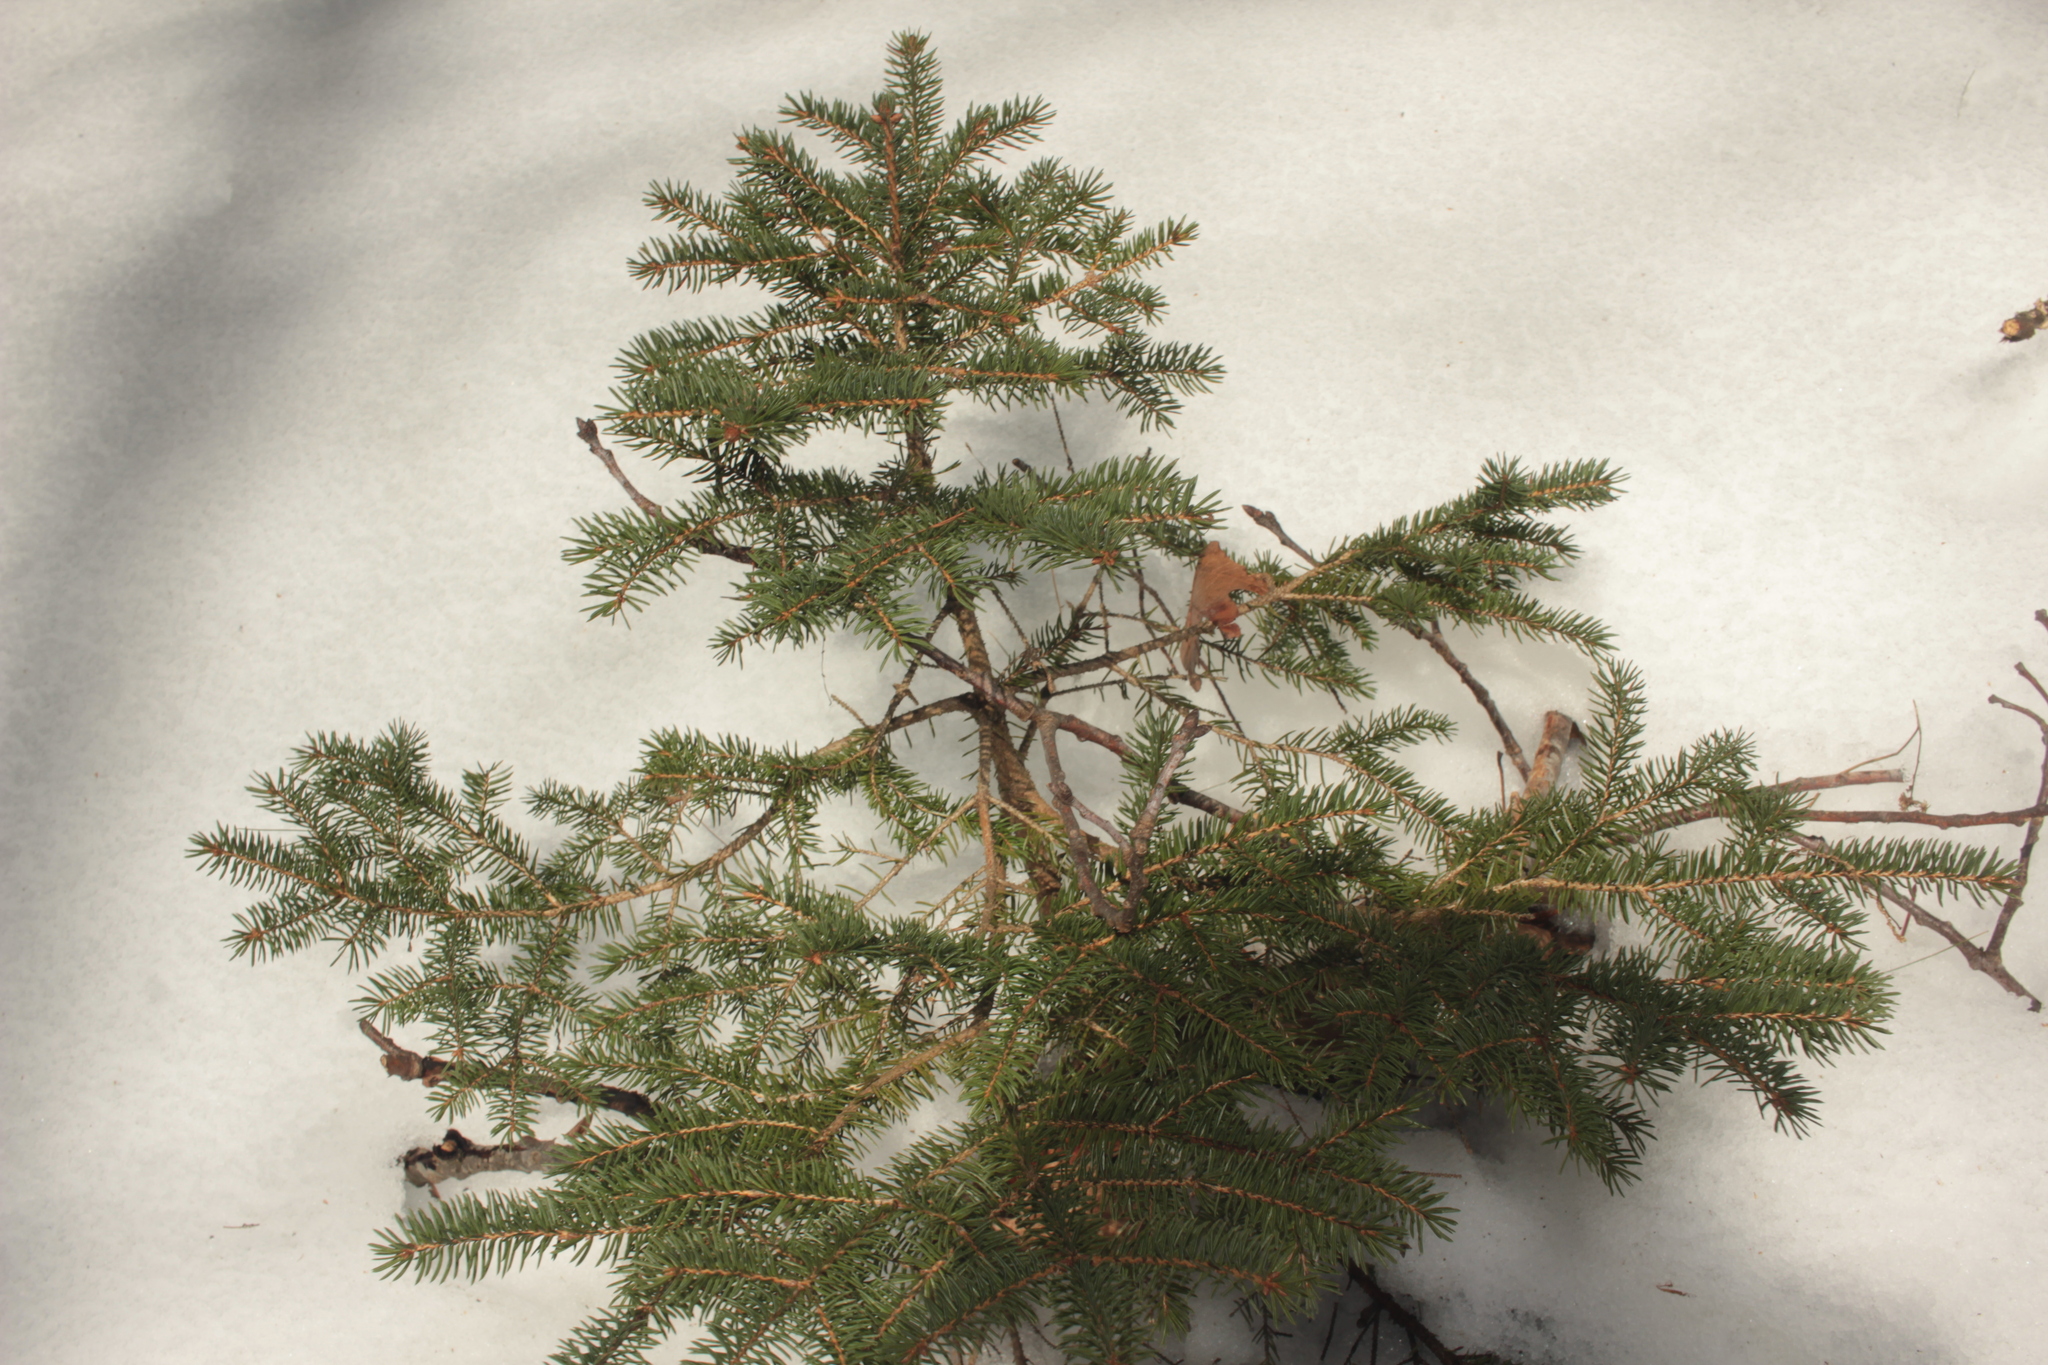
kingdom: Plantae
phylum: Tracheophyta
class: Pinopsida
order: Pinales
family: Pinaceae
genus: Picea
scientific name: Picea rubens
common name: Red spruce
